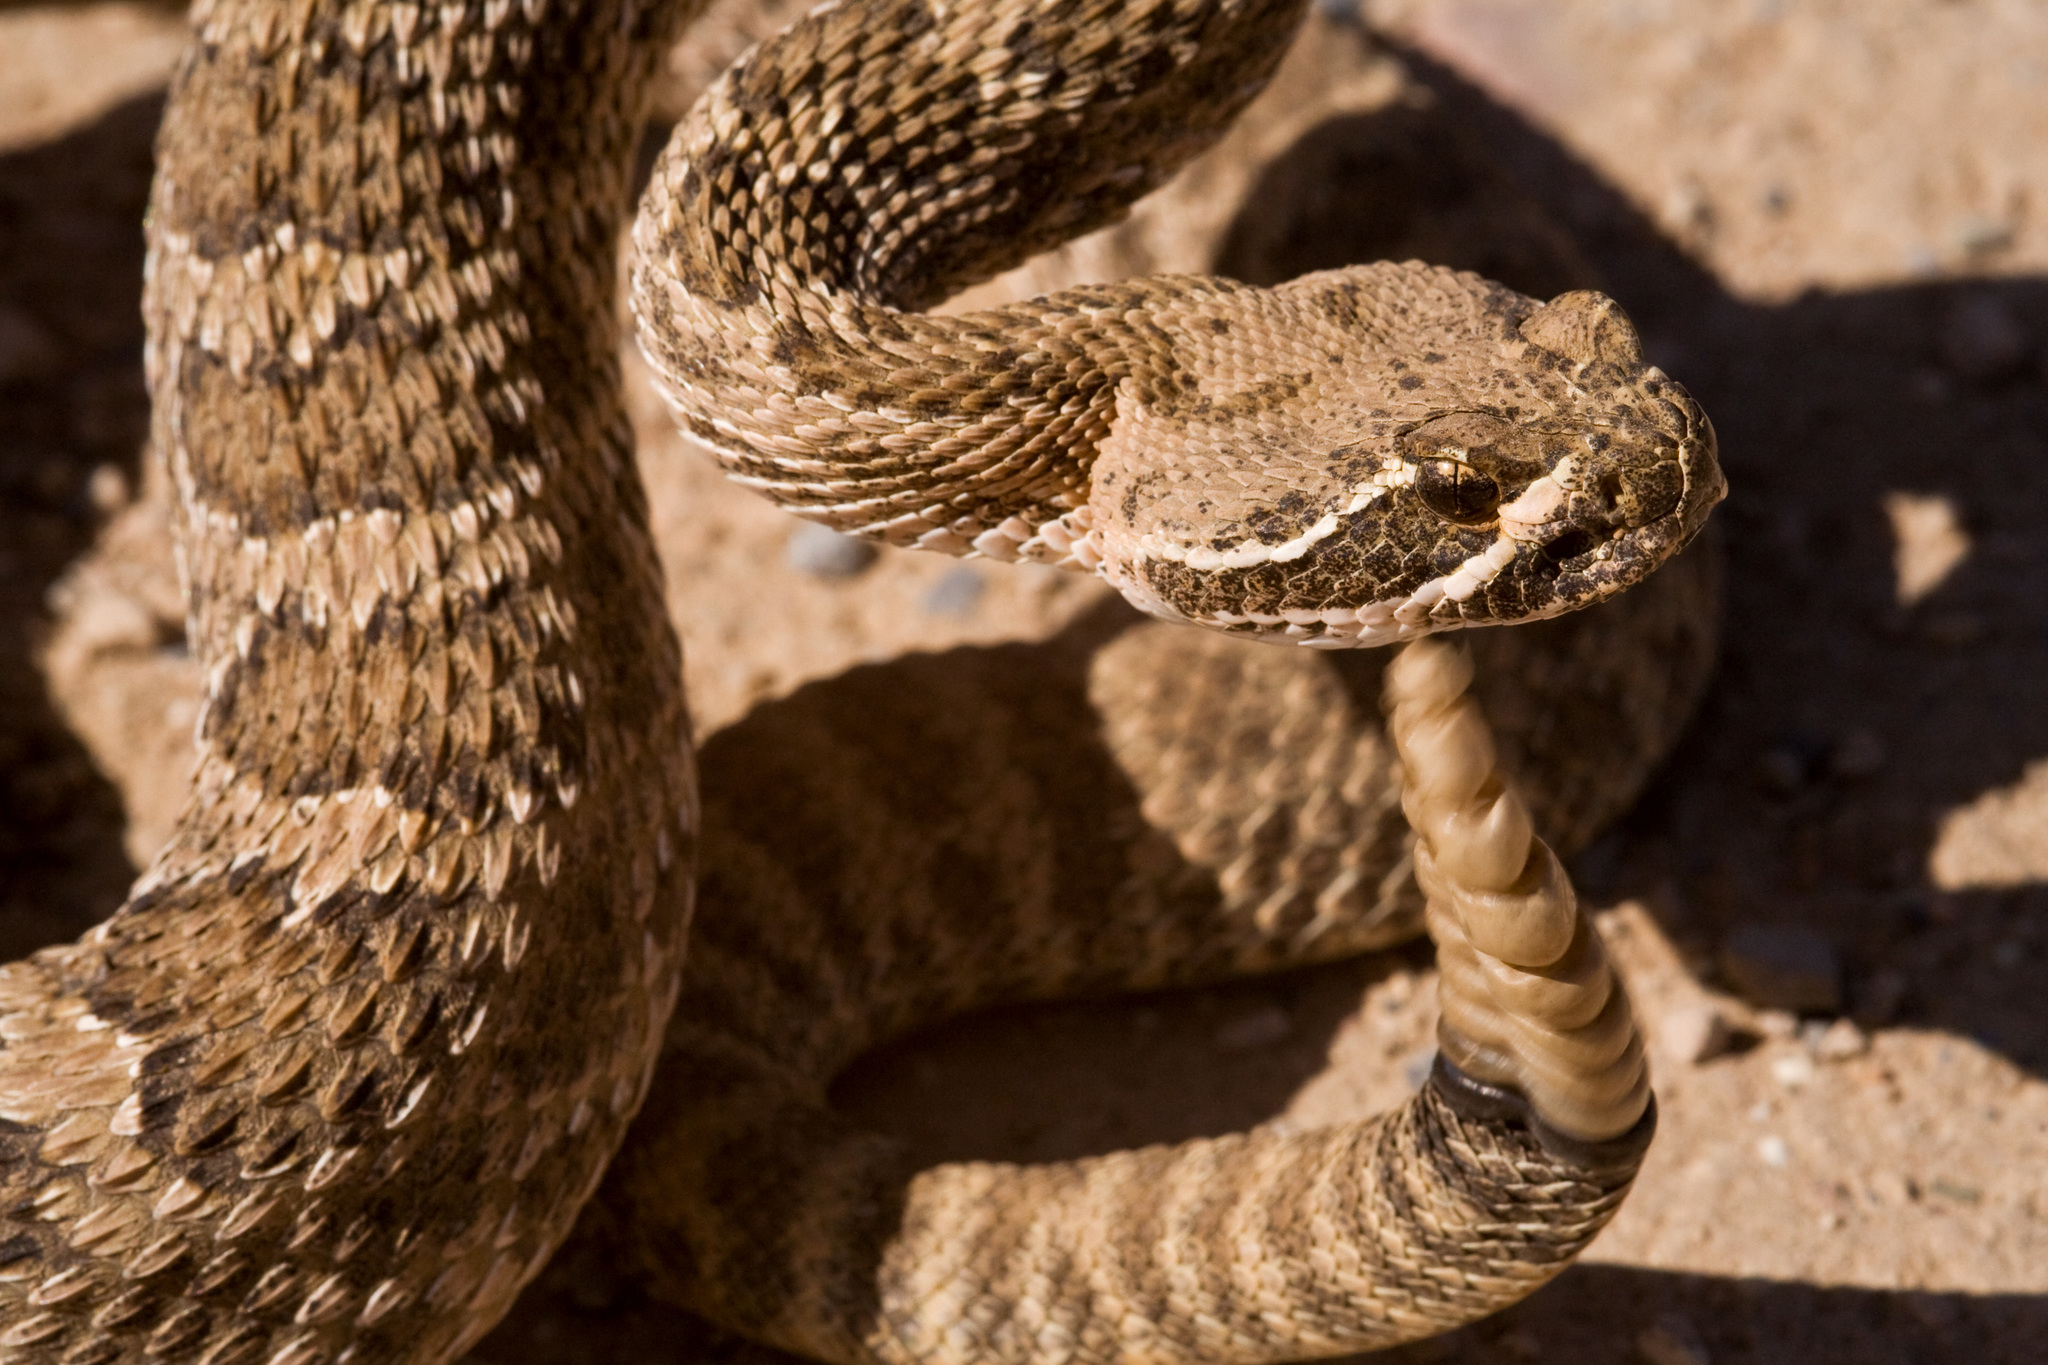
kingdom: Animalia
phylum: Chordata
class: Squamata
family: Viperidae
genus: Crotalus
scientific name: Crotalus viridis
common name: Prairie rattlesnake
